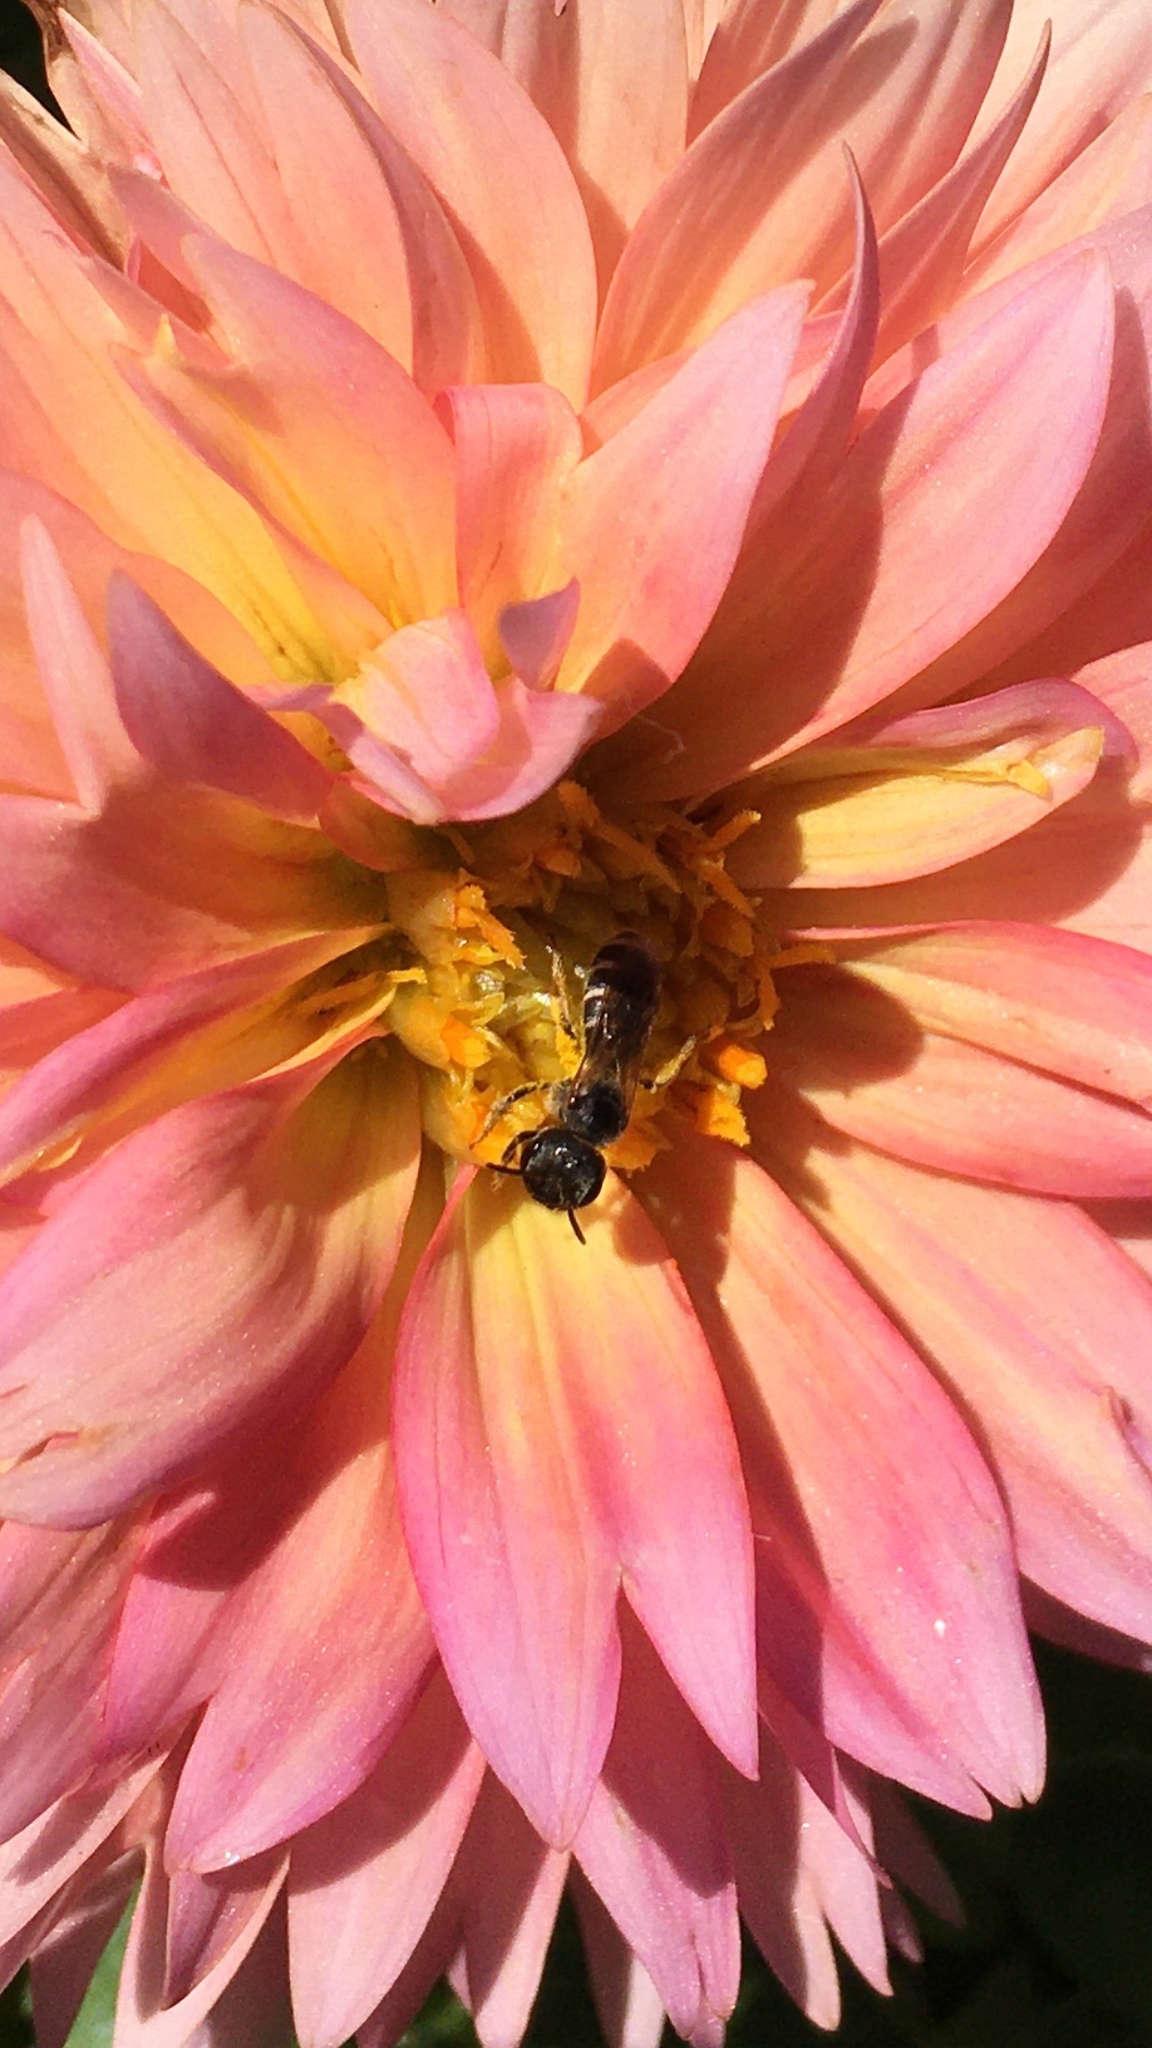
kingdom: Animalia
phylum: Arthropoda
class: Insecta
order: Hymenoptera
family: Halictidae
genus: Halictus
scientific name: Halictus ligatus
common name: Ligated furrow bee
